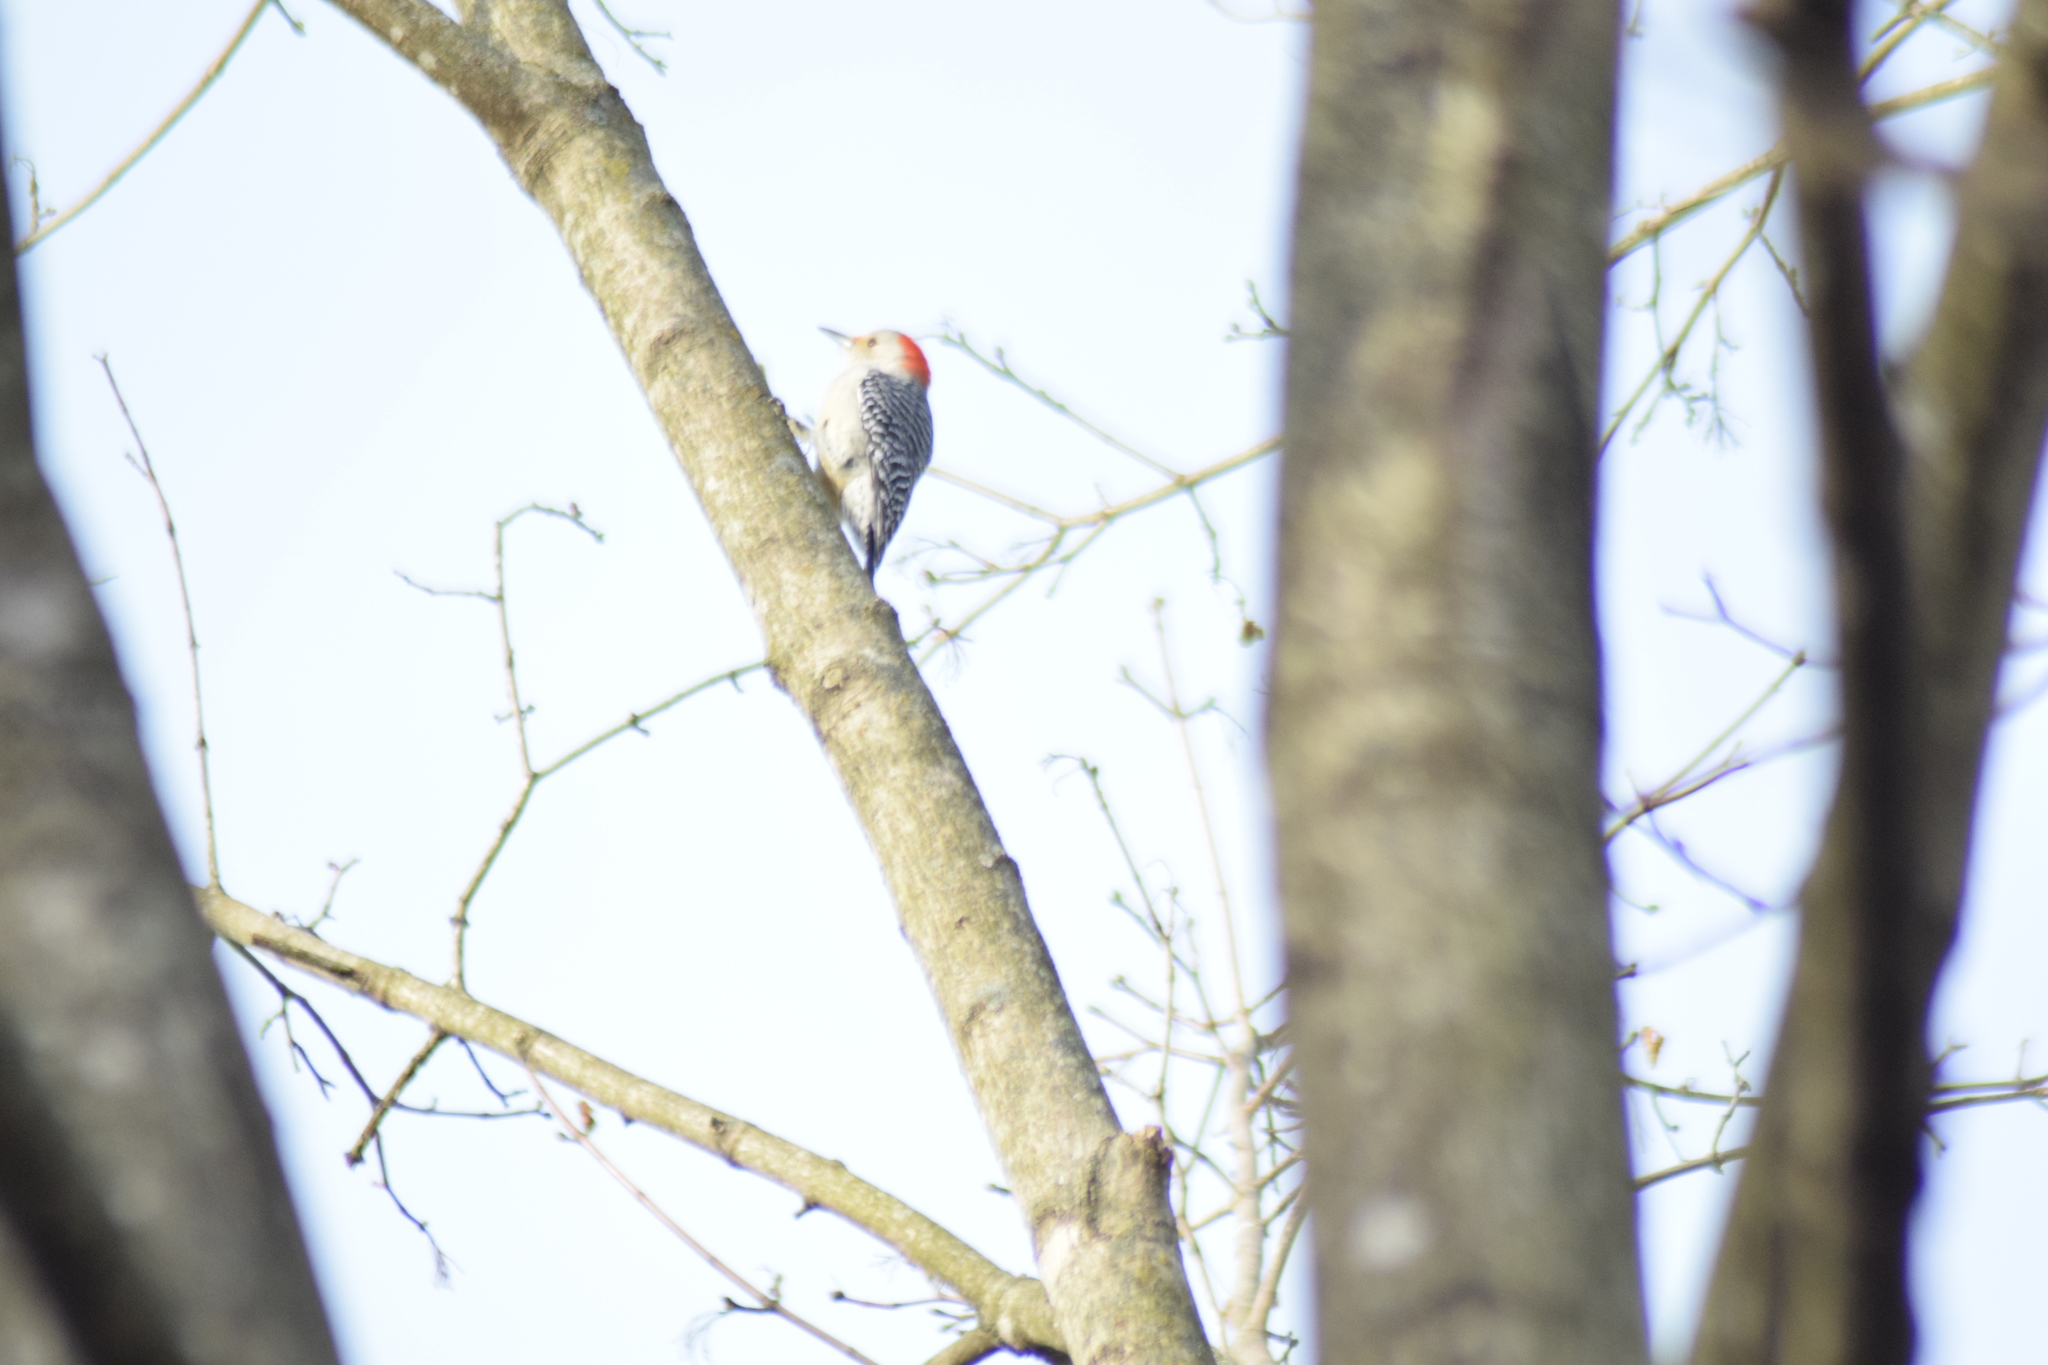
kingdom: Animalia
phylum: Chordata
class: Aves
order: Piciformes
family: Picidae
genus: Melanerpes
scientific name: Melanerpes carolinus
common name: Red-bellied woodpecker
